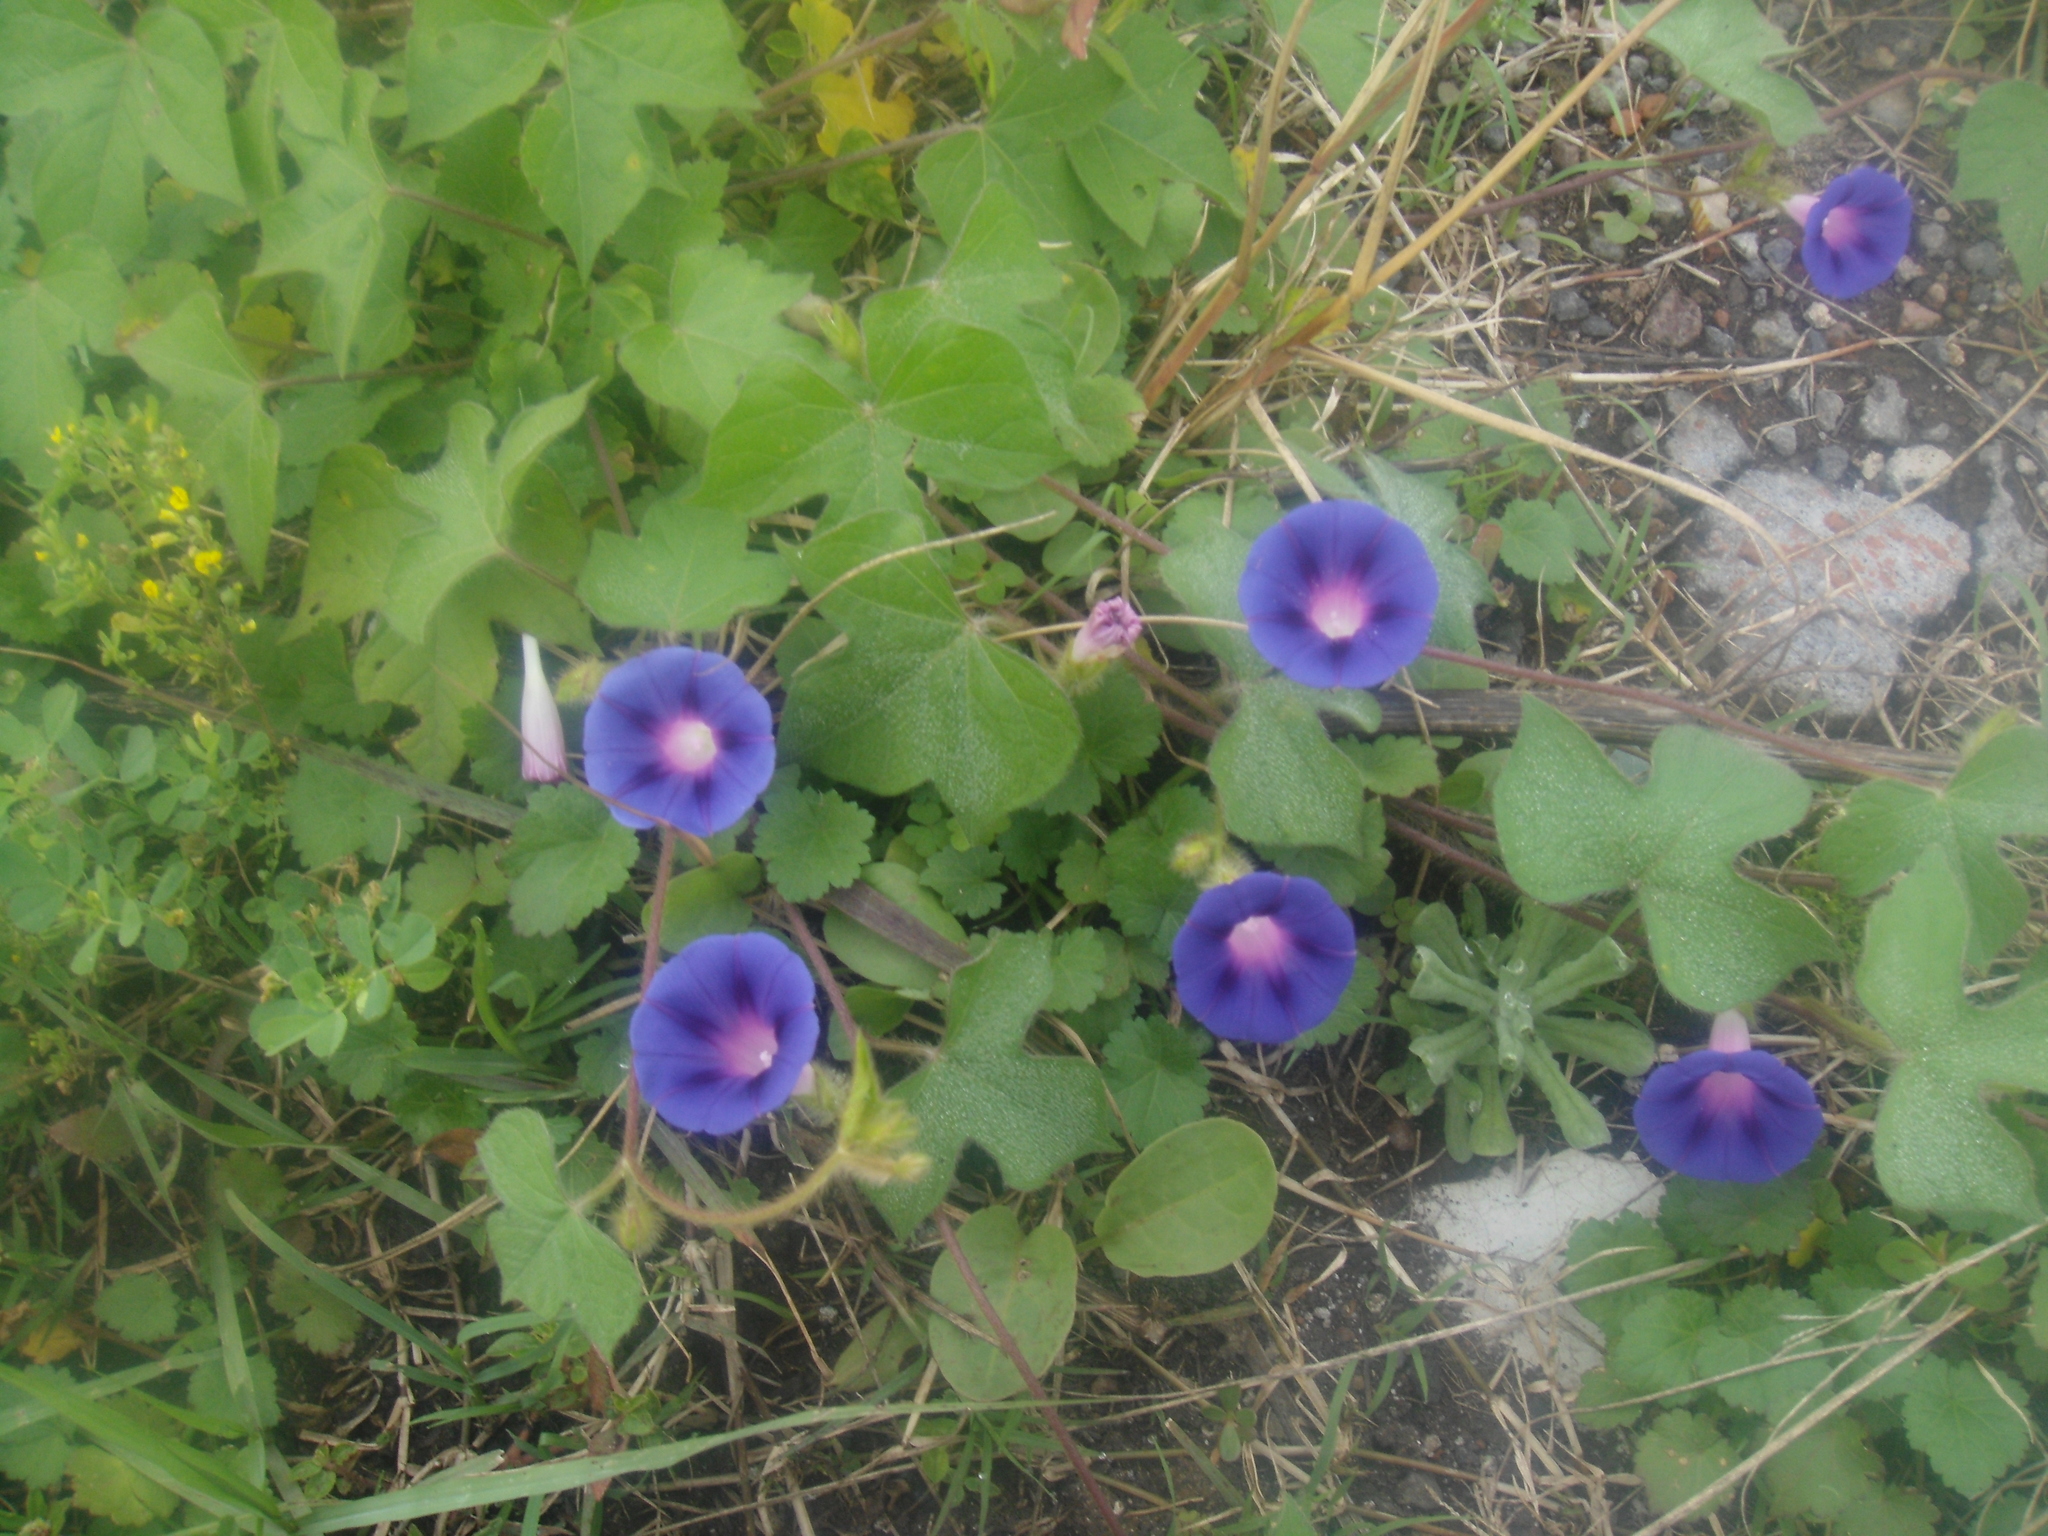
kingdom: Plantae
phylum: Tracheophyta
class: Magnoliopsida
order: Solanales
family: Convolvulaceae
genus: Ipomoea
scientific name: Ipomoea purpurea
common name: Common morning-glory
